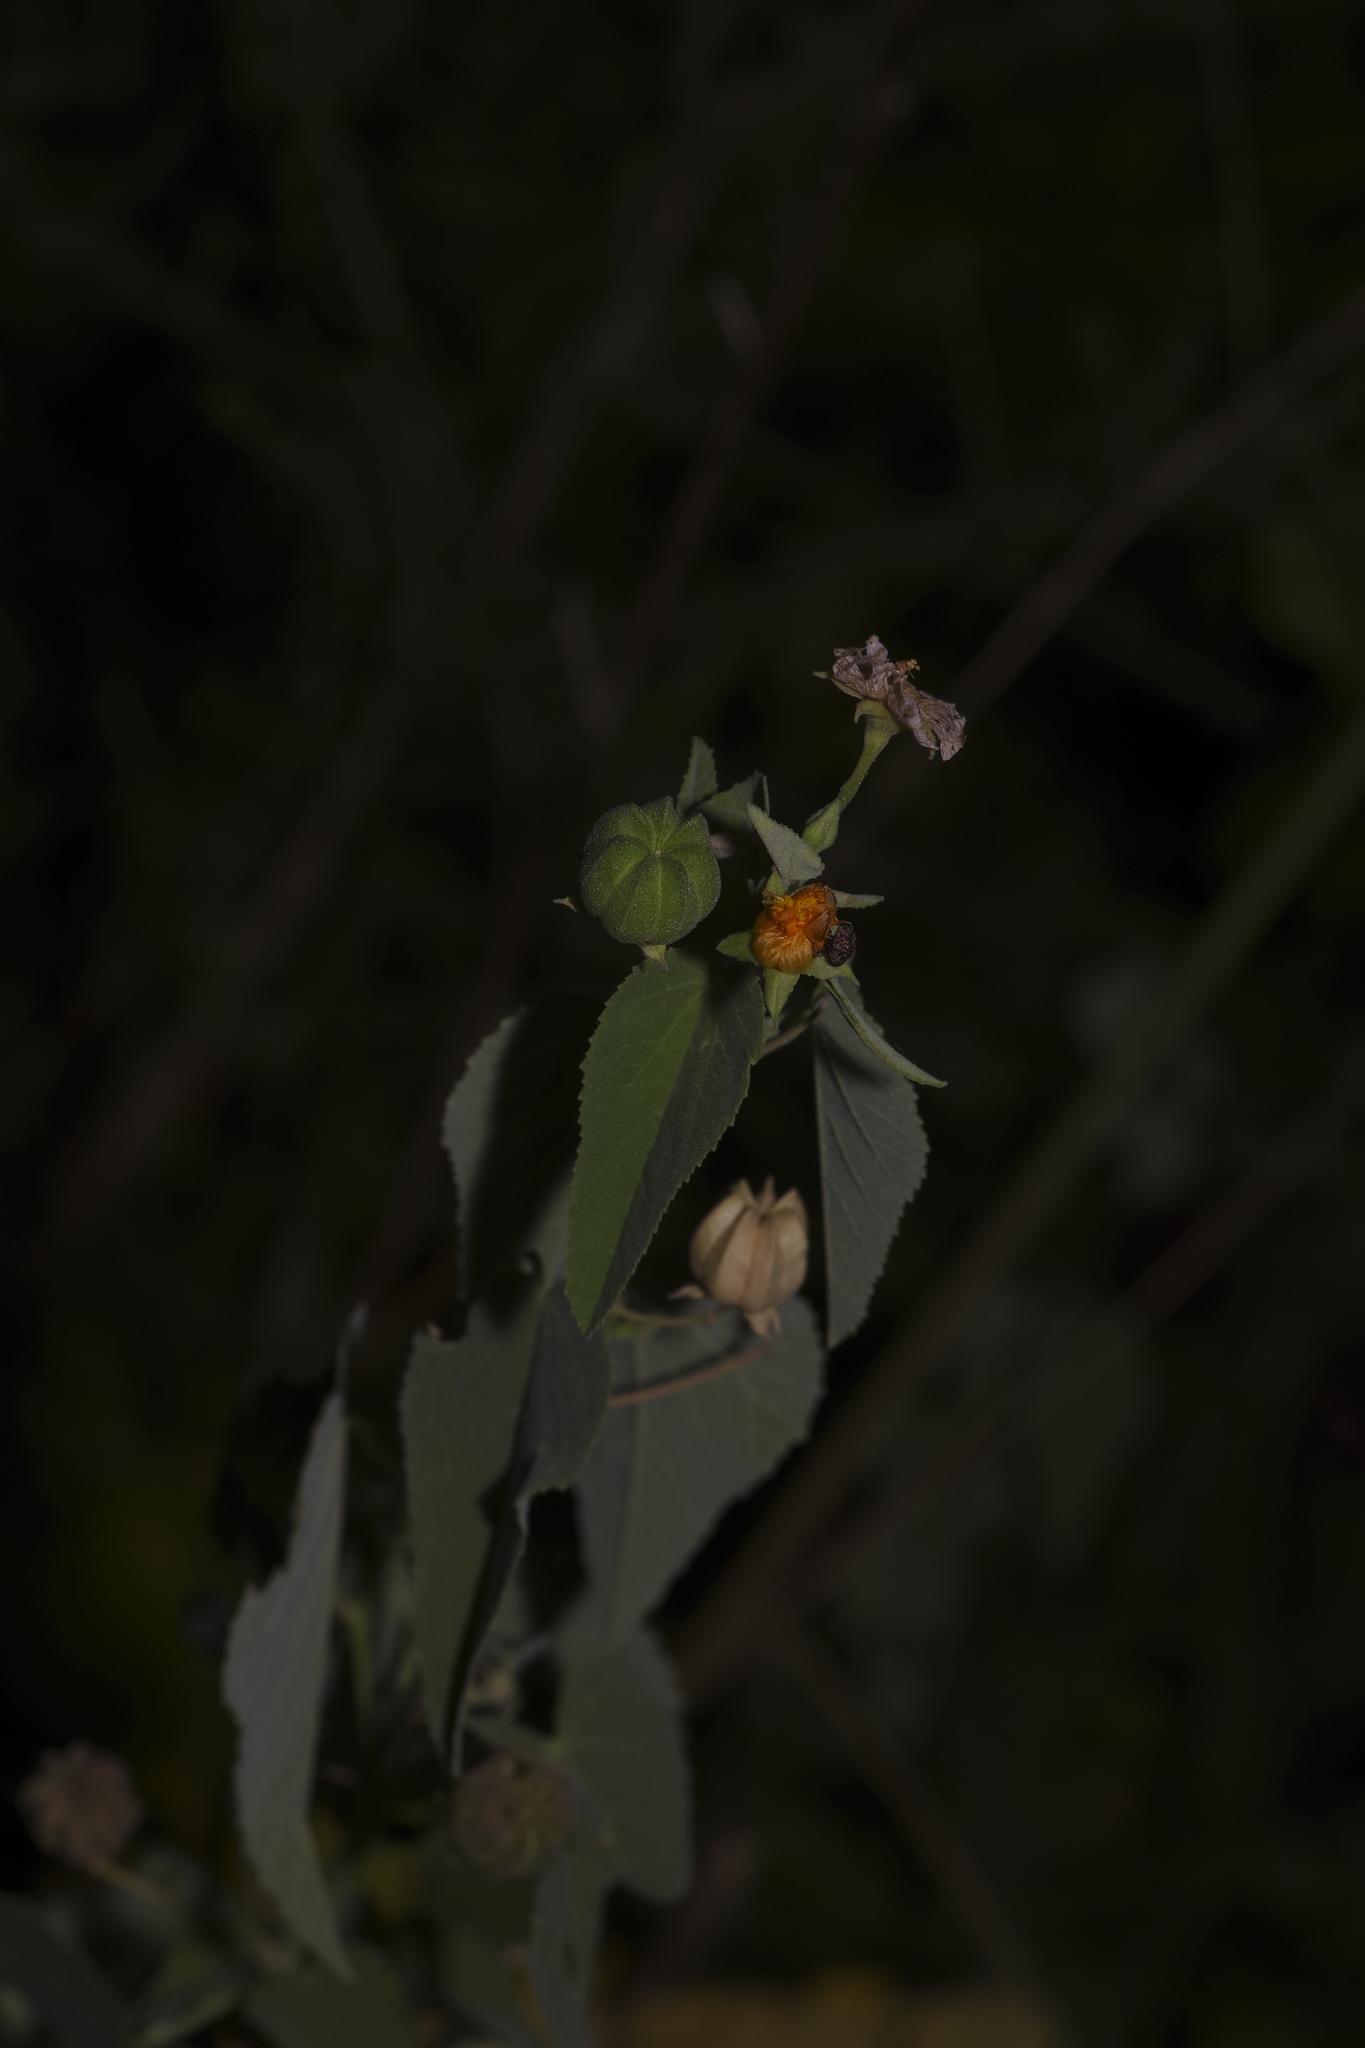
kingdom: Plantae
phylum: Tracheophyta
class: Magnoliopsida
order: Malvales
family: Malvaceae
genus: Abutilon
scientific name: Abutilon fruticosum
